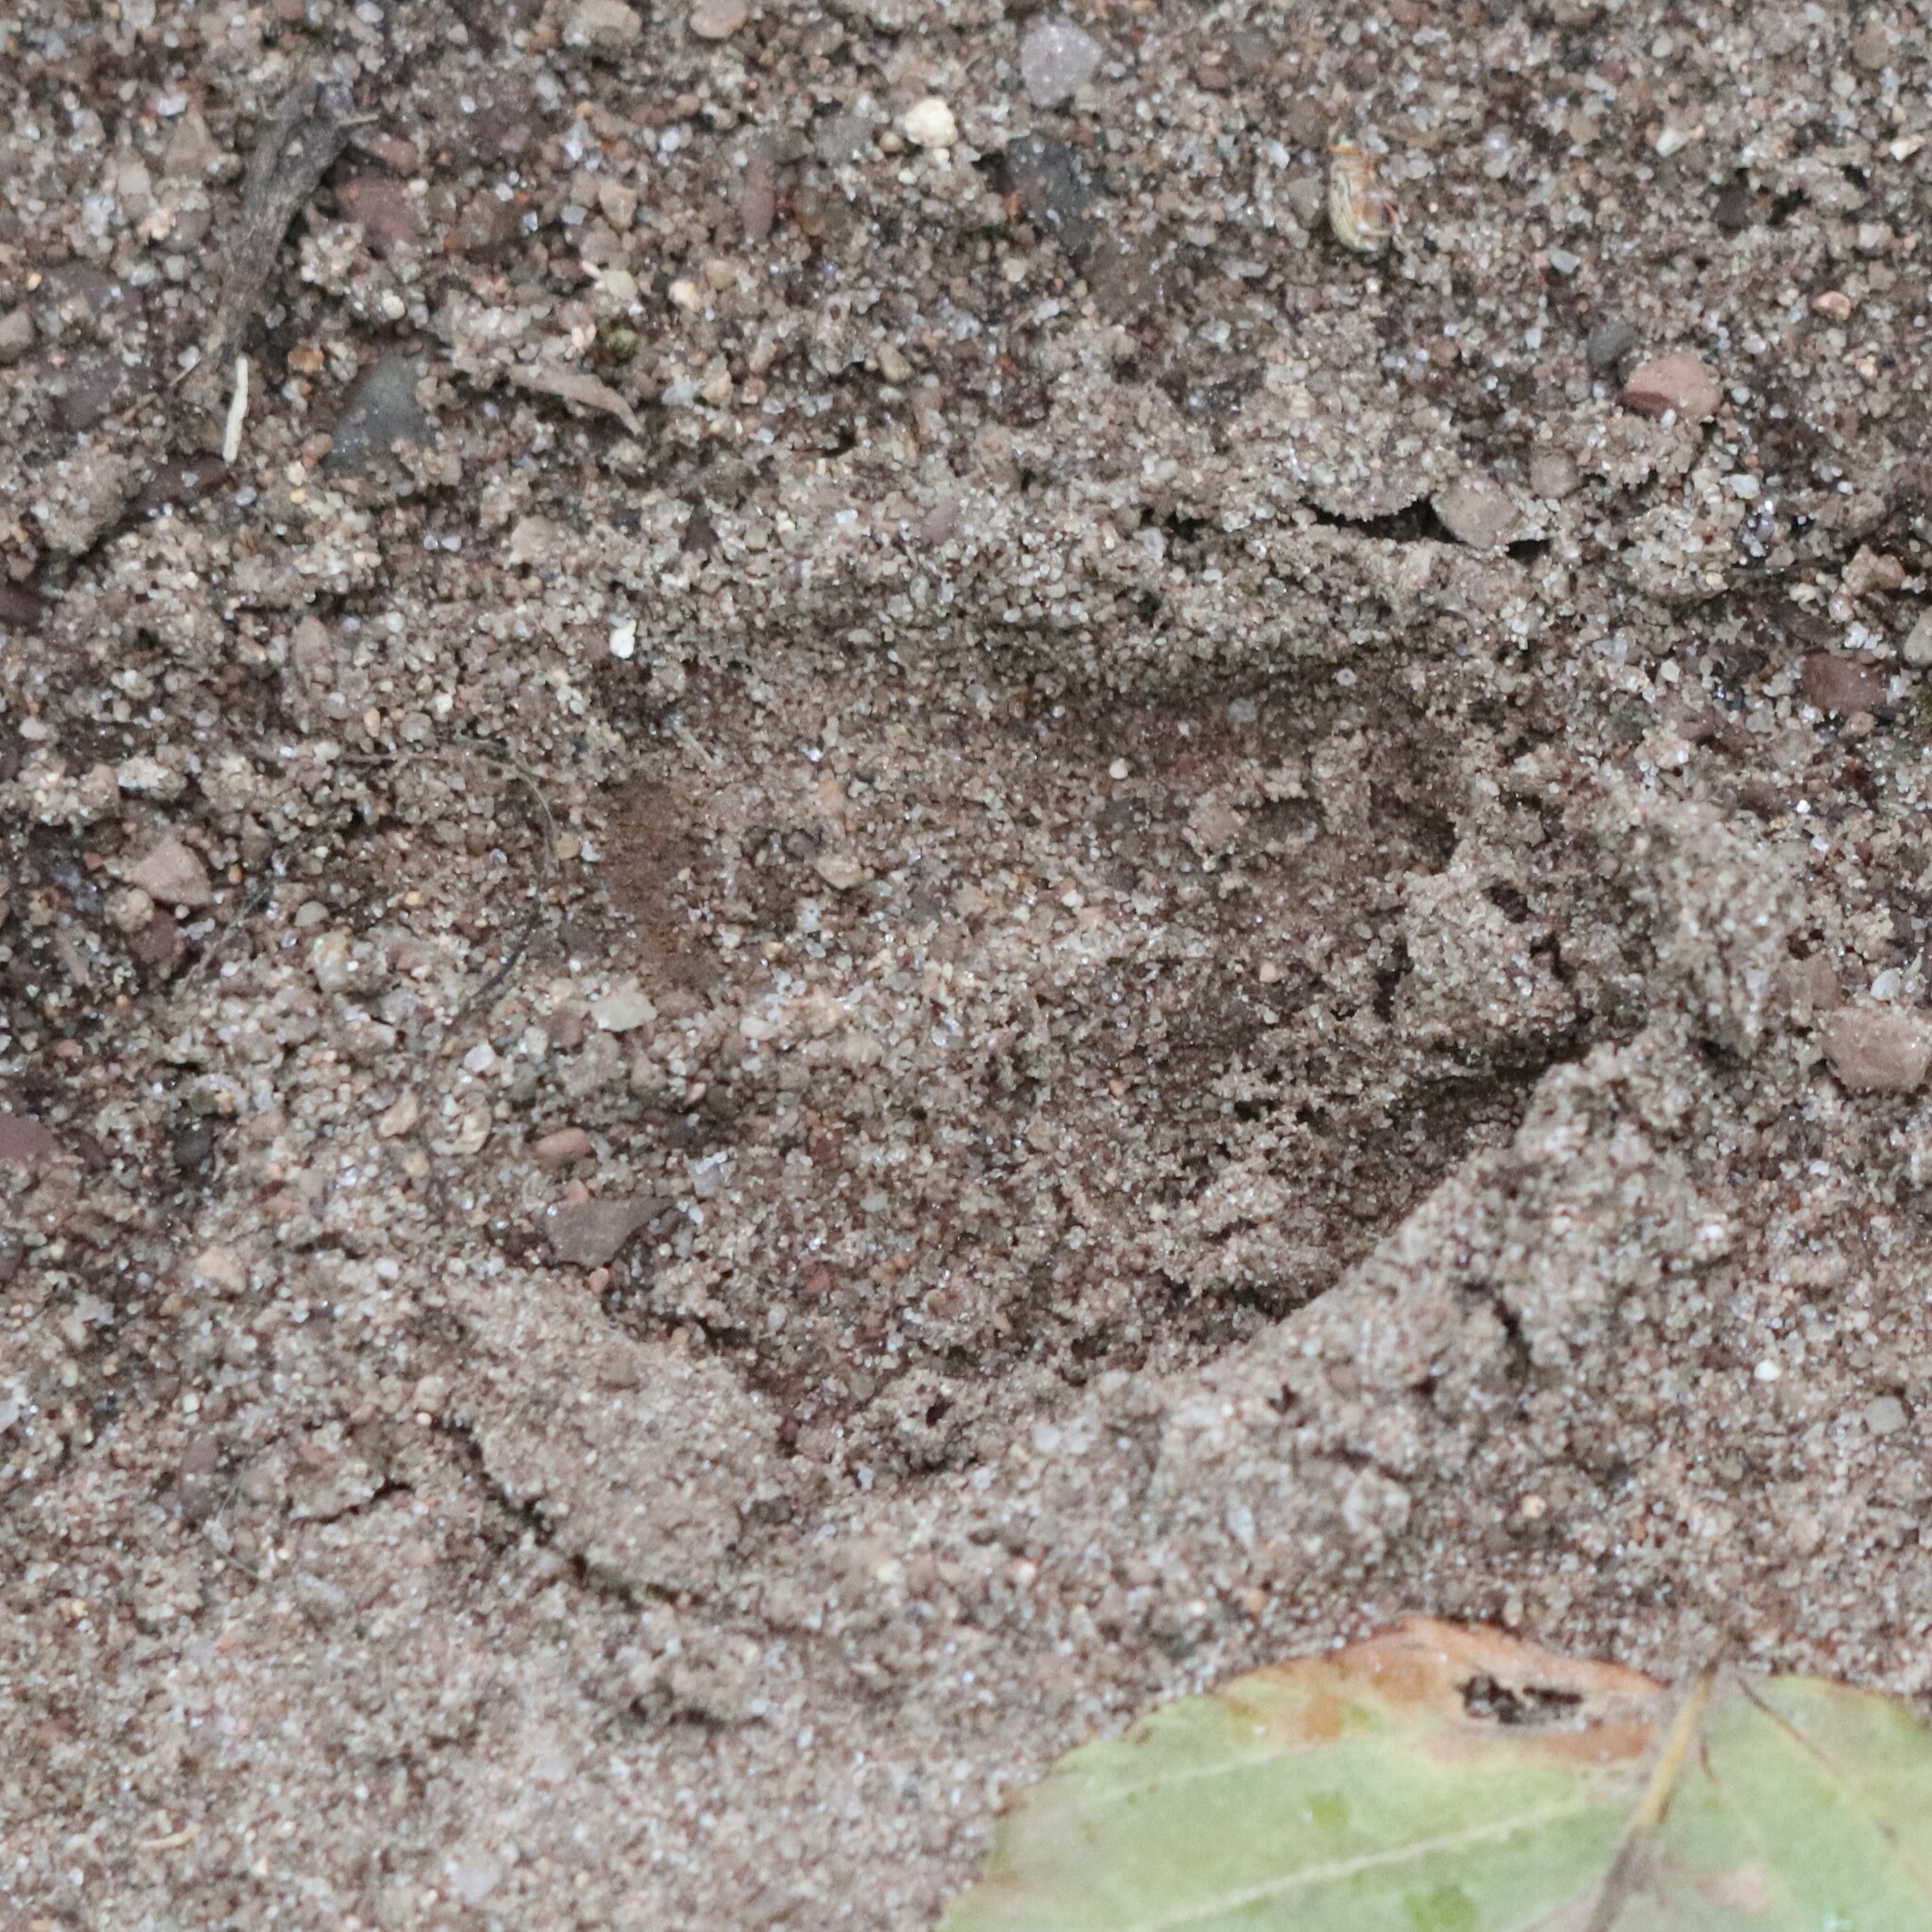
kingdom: Animalia
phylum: Chordata
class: Mammalia
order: Artiodactyla
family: Cervidae
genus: Odocoileus
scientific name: Odocoileus virginianus
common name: White-tailed deer
